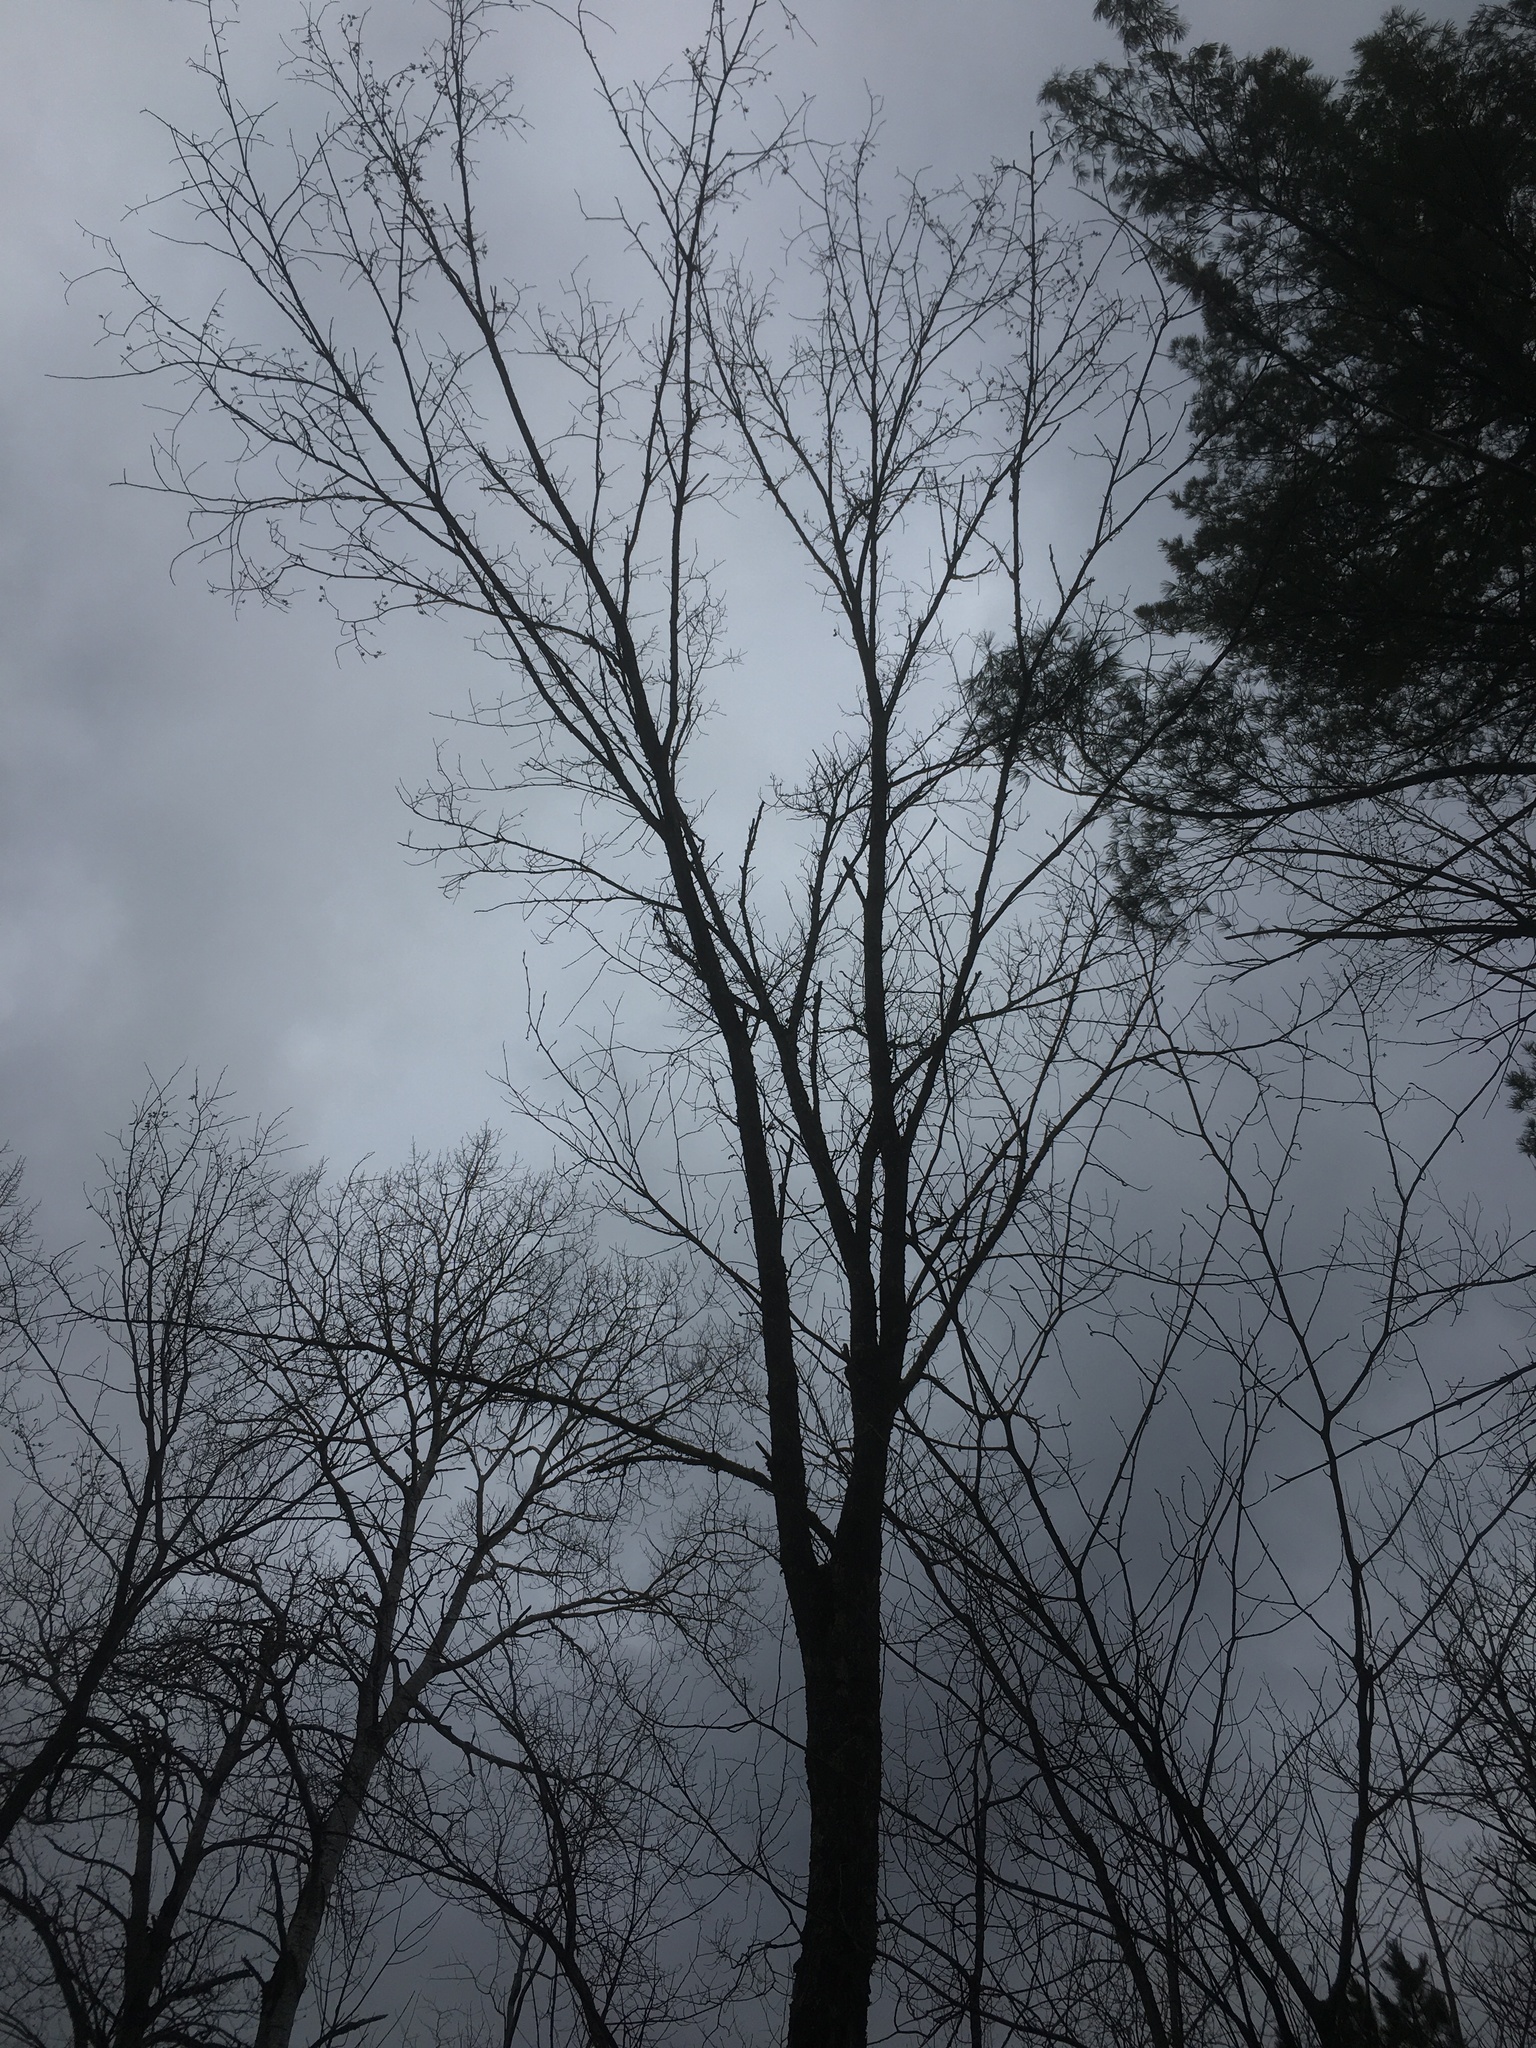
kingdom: Plantae
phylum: Tracheophyta
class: Magnoliopsida
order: Rosales
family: Ulmaceae
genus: Ulmus
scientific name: Ulmus americana
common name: American elm
